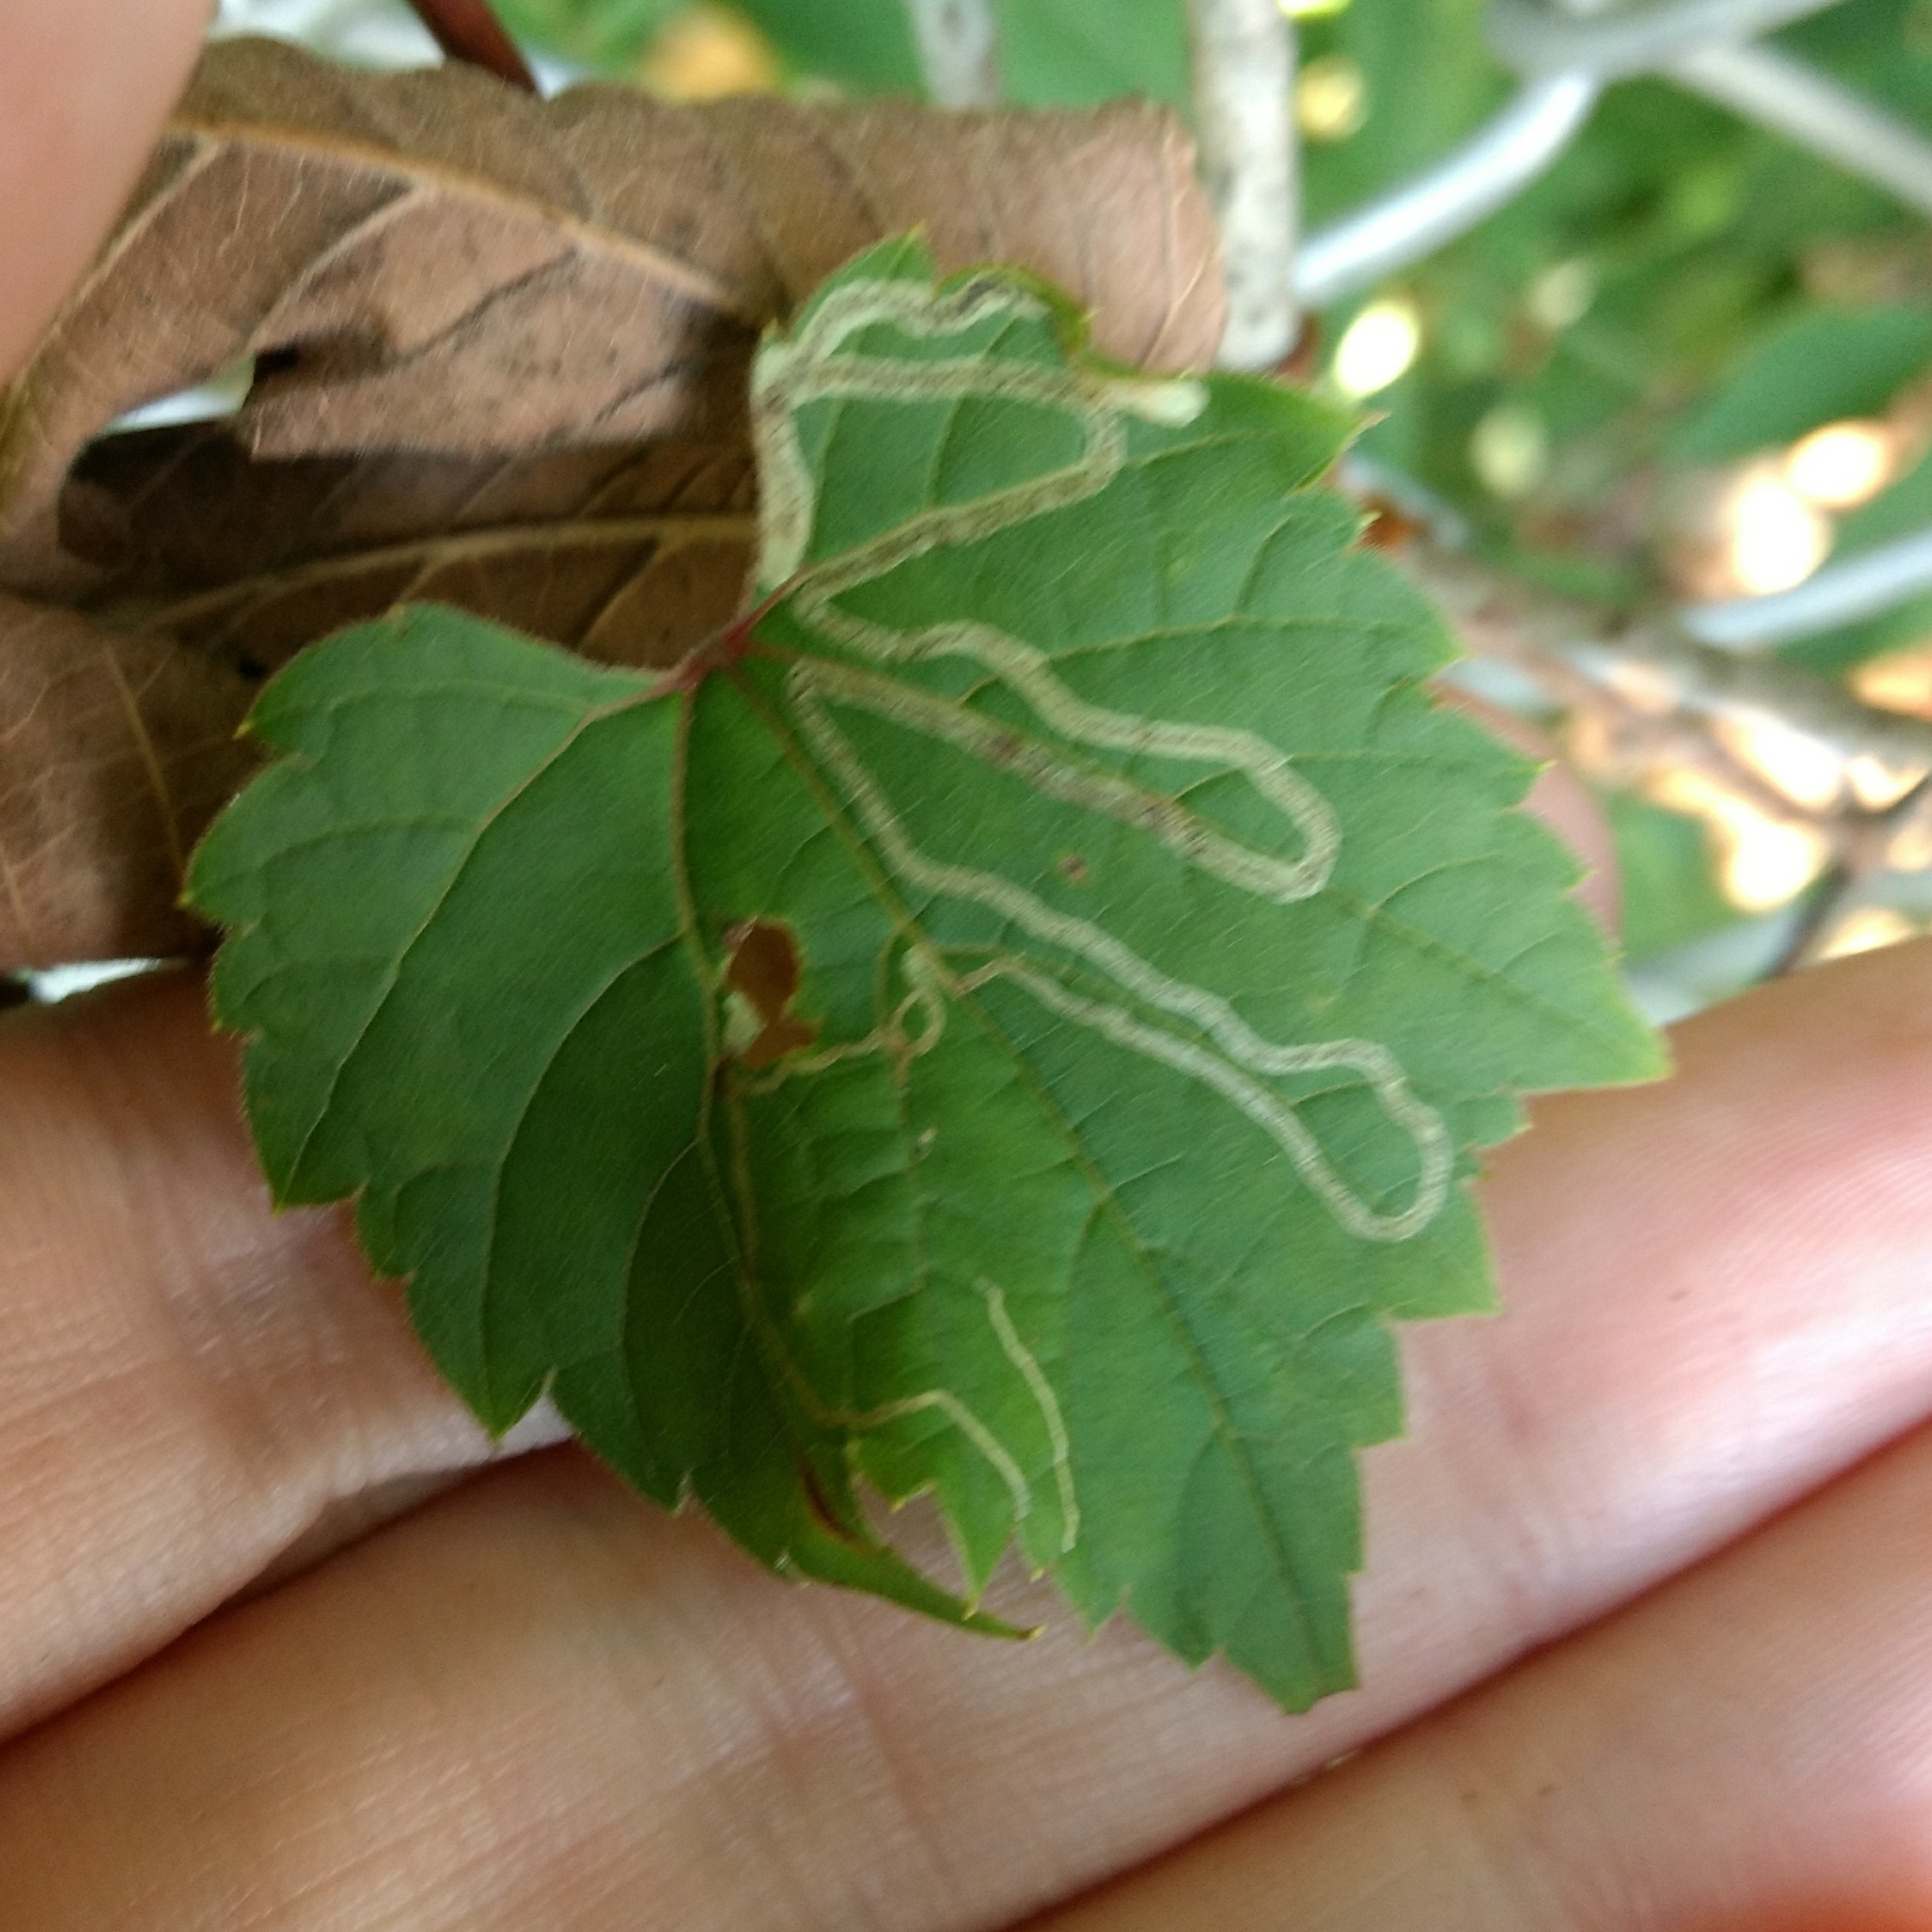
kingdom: Animalia
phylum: Arthropoda
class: Insecta
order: Lepidoptera
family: Gracillariidae
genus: Phyllocnistis
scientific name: Phyllocnistis vitifoliella
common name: Grape leaf-miner moth
